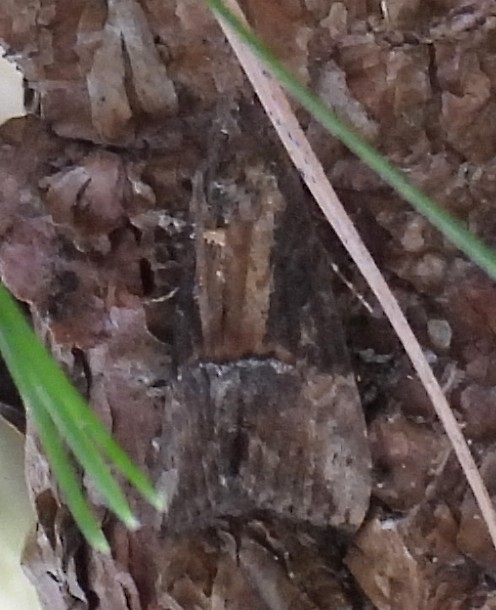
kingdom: Animalia
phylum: Arthropoda
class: Insecta
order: Lepidoptera
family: Erebidae
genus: Hypena
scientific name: Hypena scabra
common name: Green cloverworm
